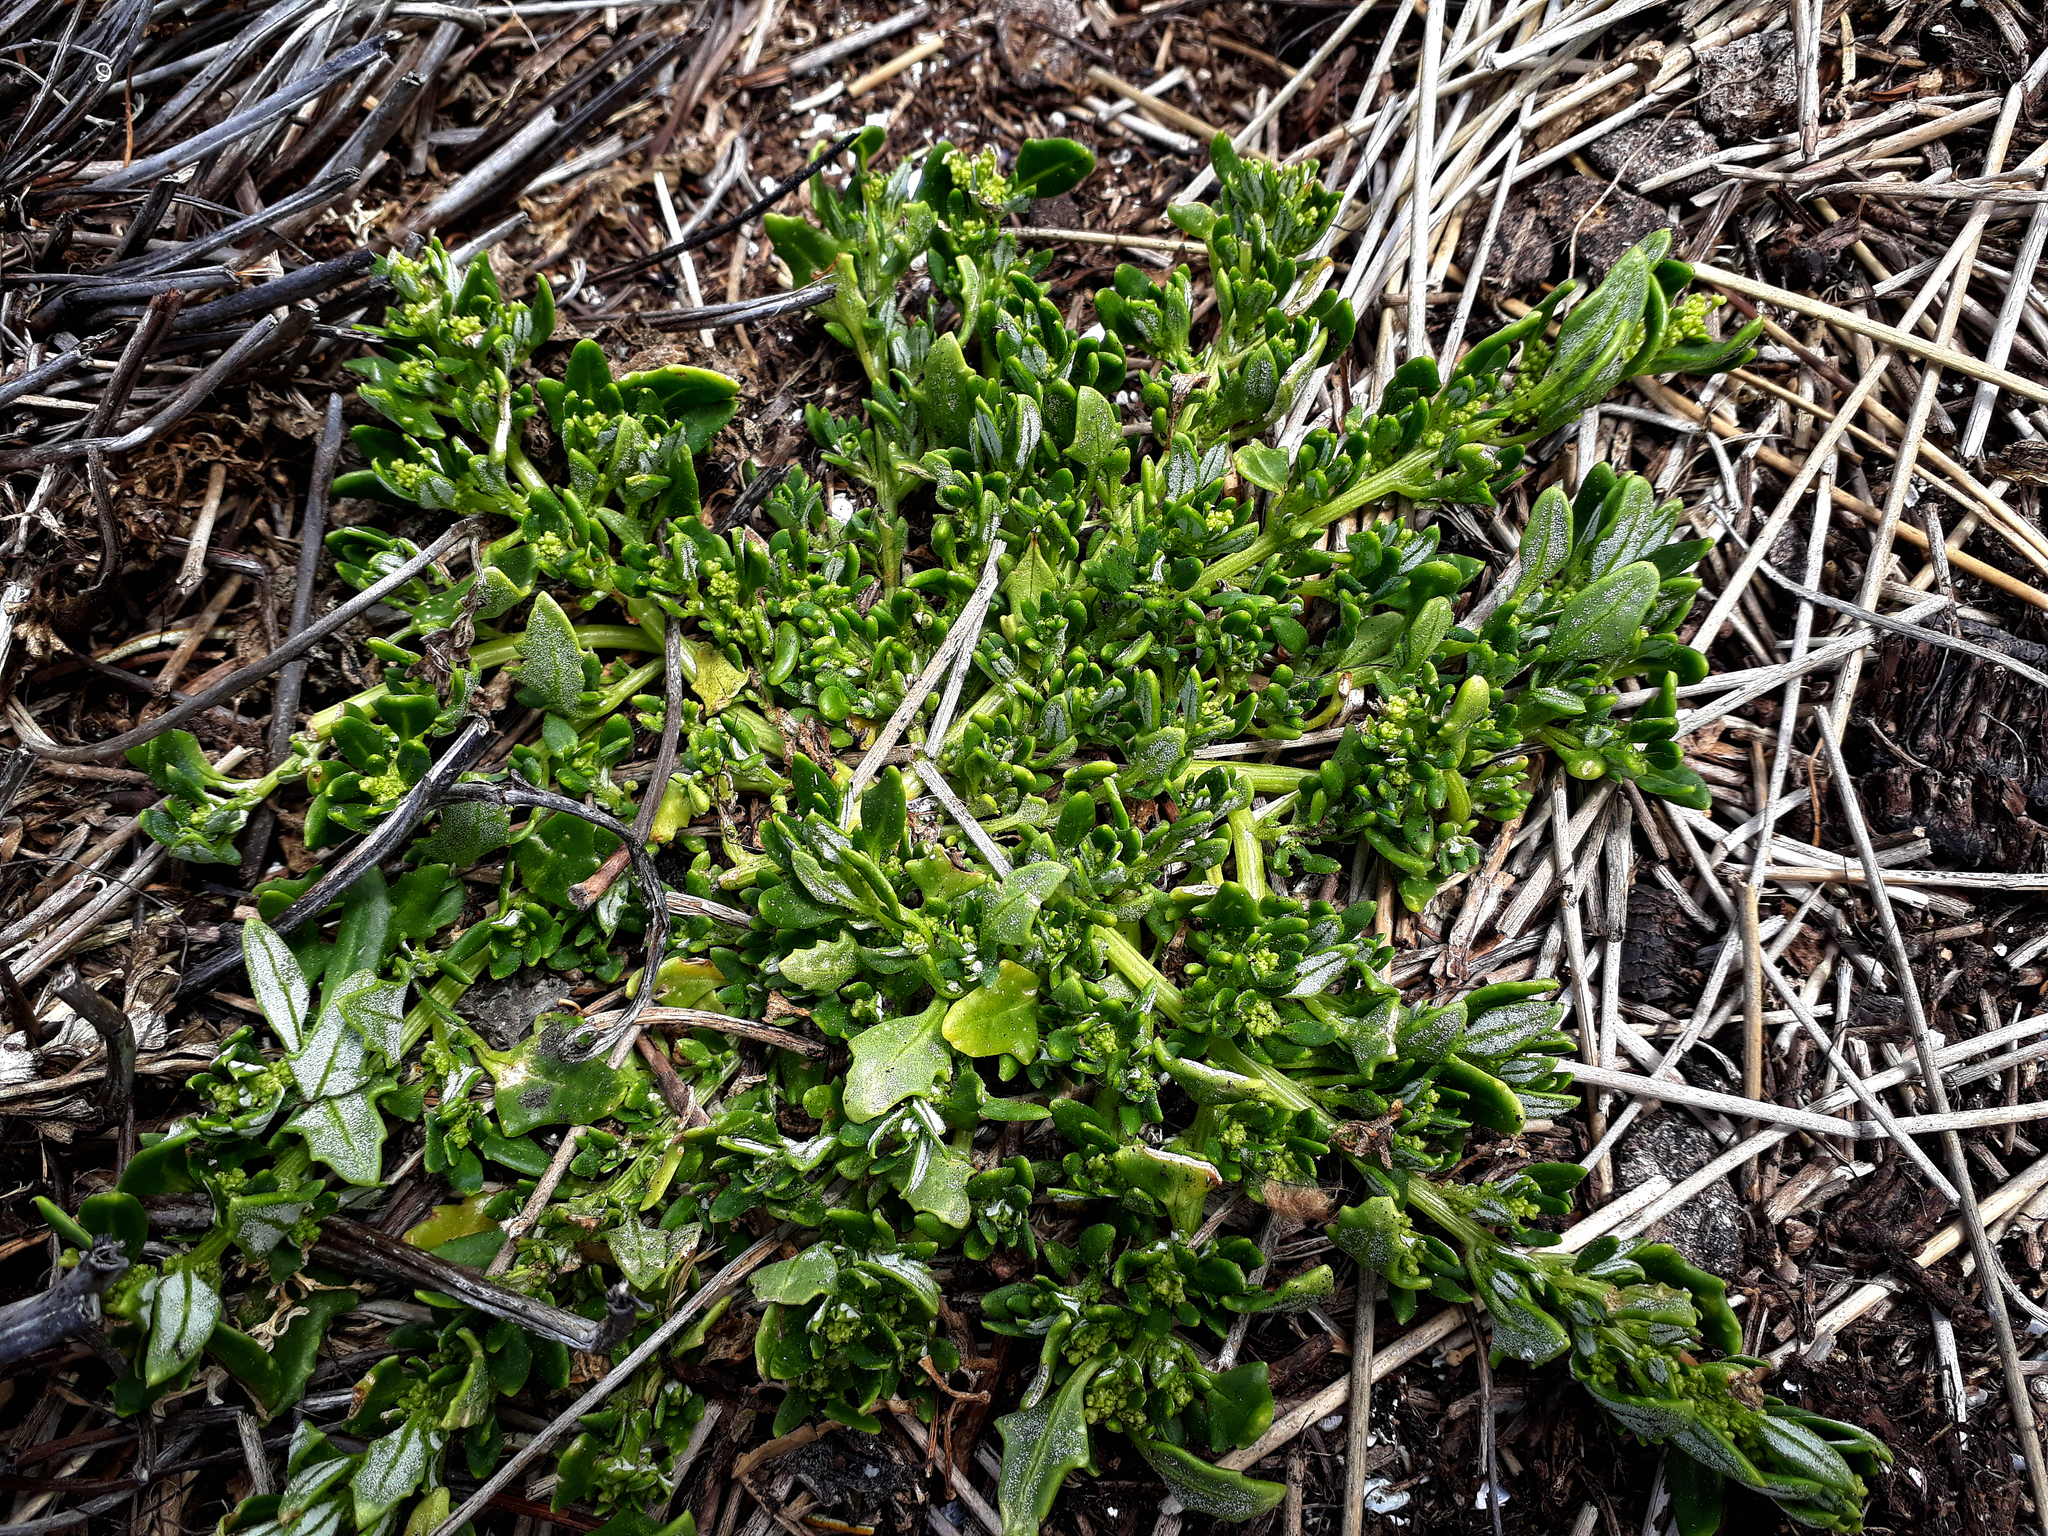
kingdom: Plantae
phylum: Tracheophyta
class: Magnoliopsida
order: Caryophyllales
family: Amaranthaceae
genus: Oxybasis
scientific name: Oxybasis ambigua
